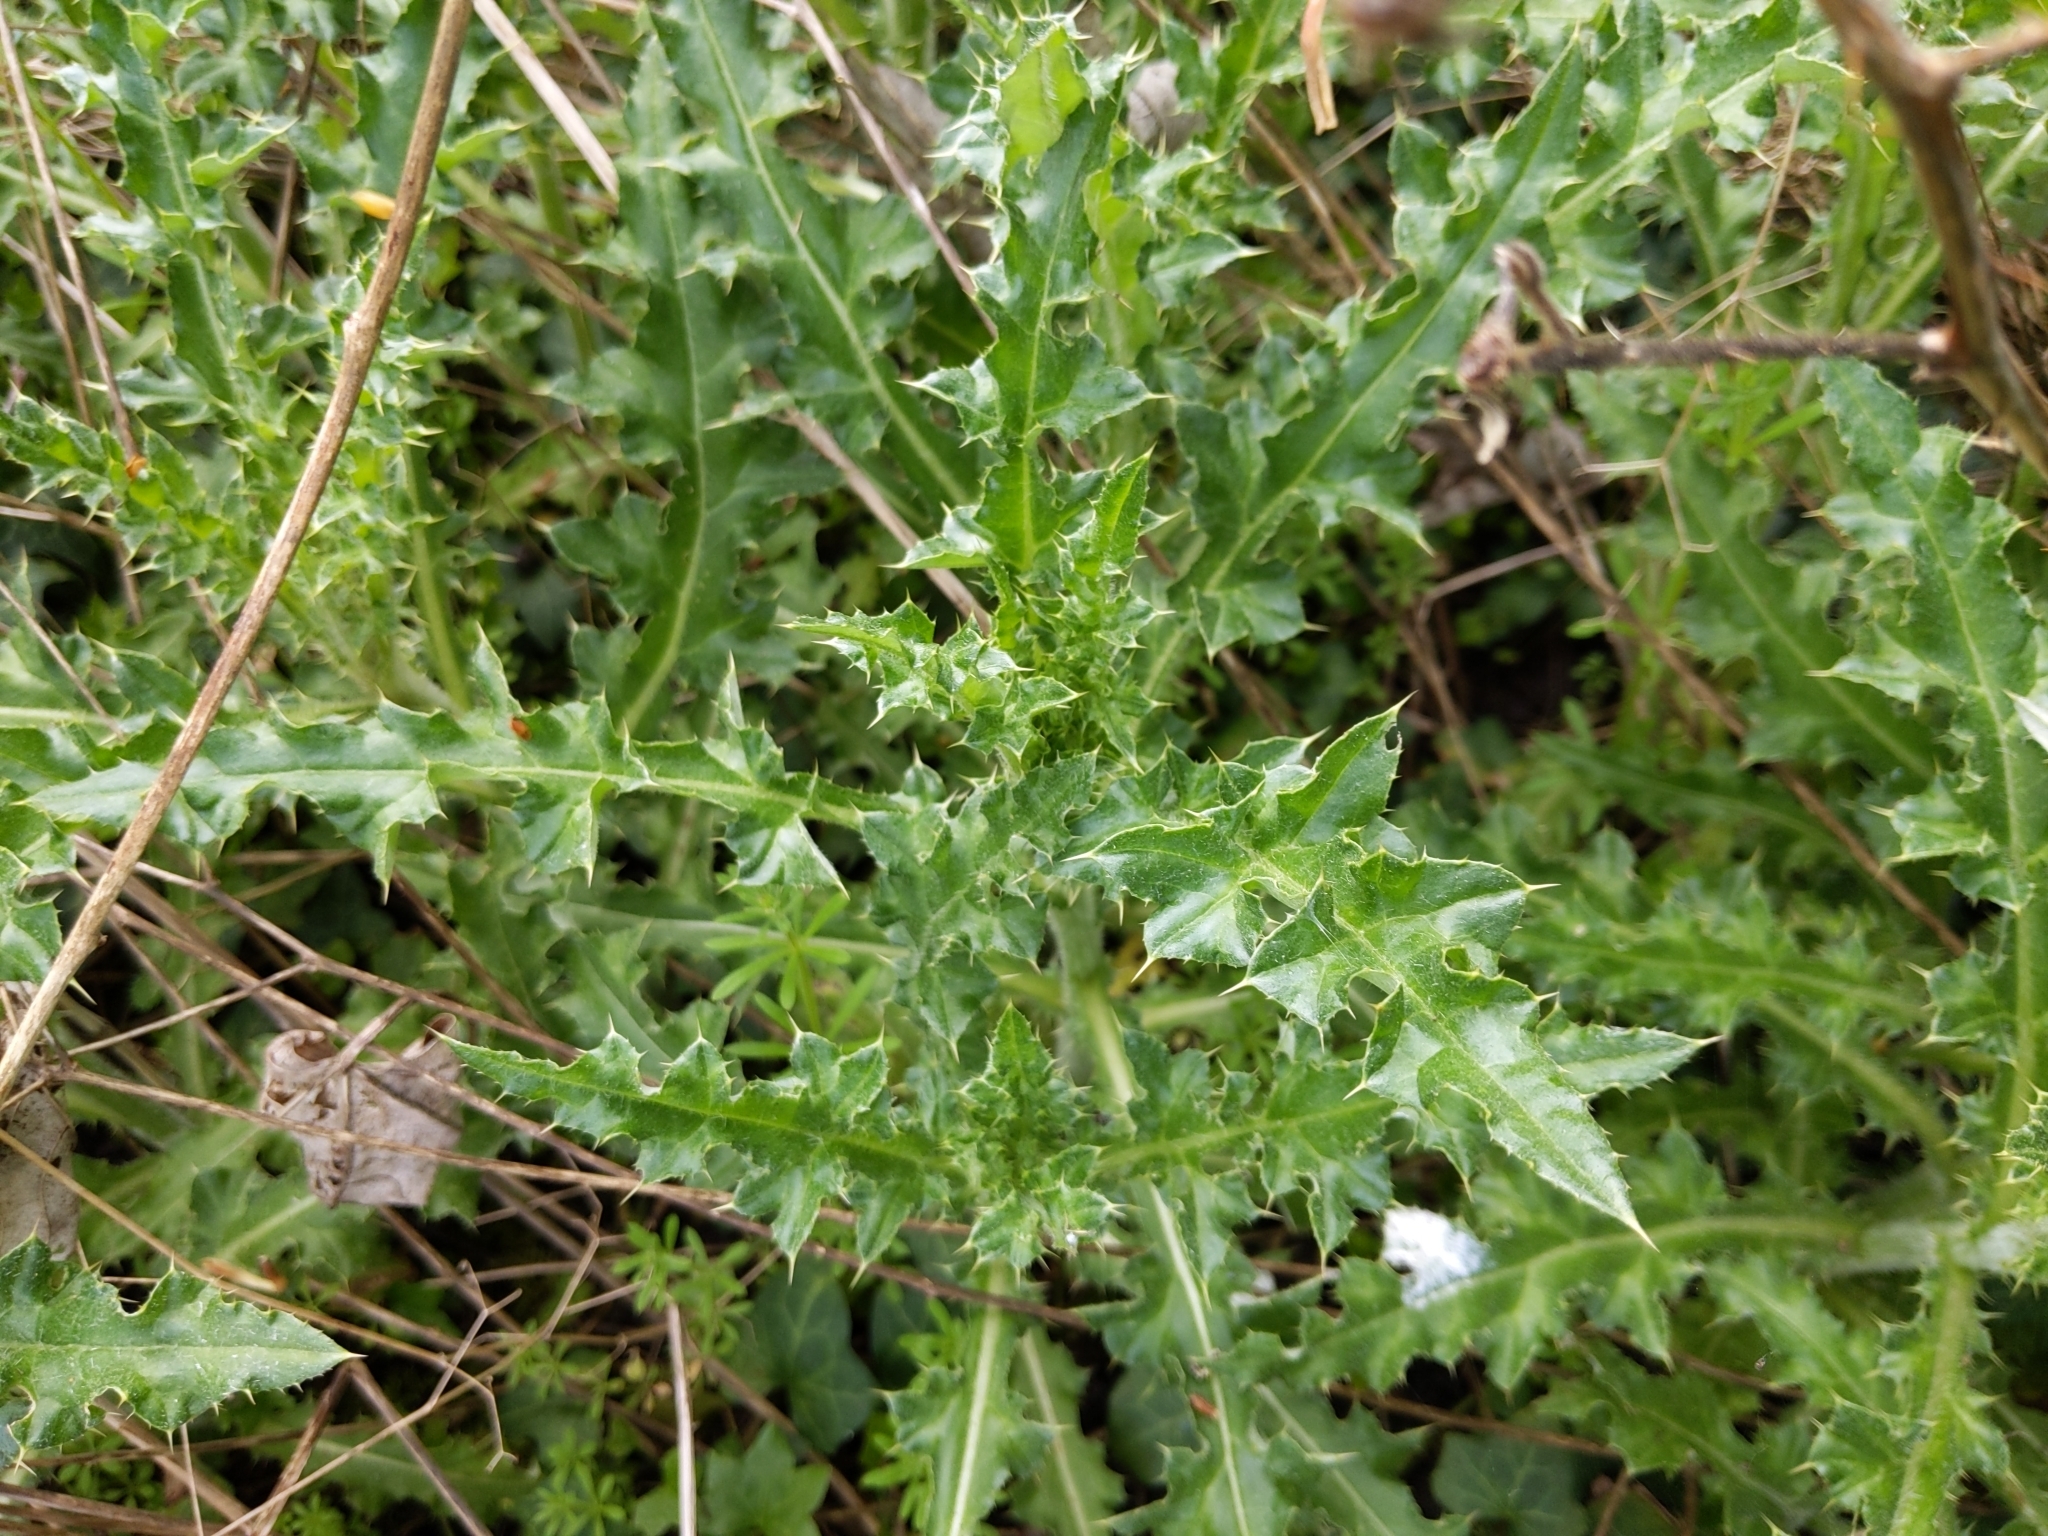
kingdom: Plantae
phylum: Tracheophyta
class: Magnoliopsida
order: Asterales
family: Asteraceae
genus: Cirsium
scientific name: Cirsium arvense
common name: Creeping thistle
